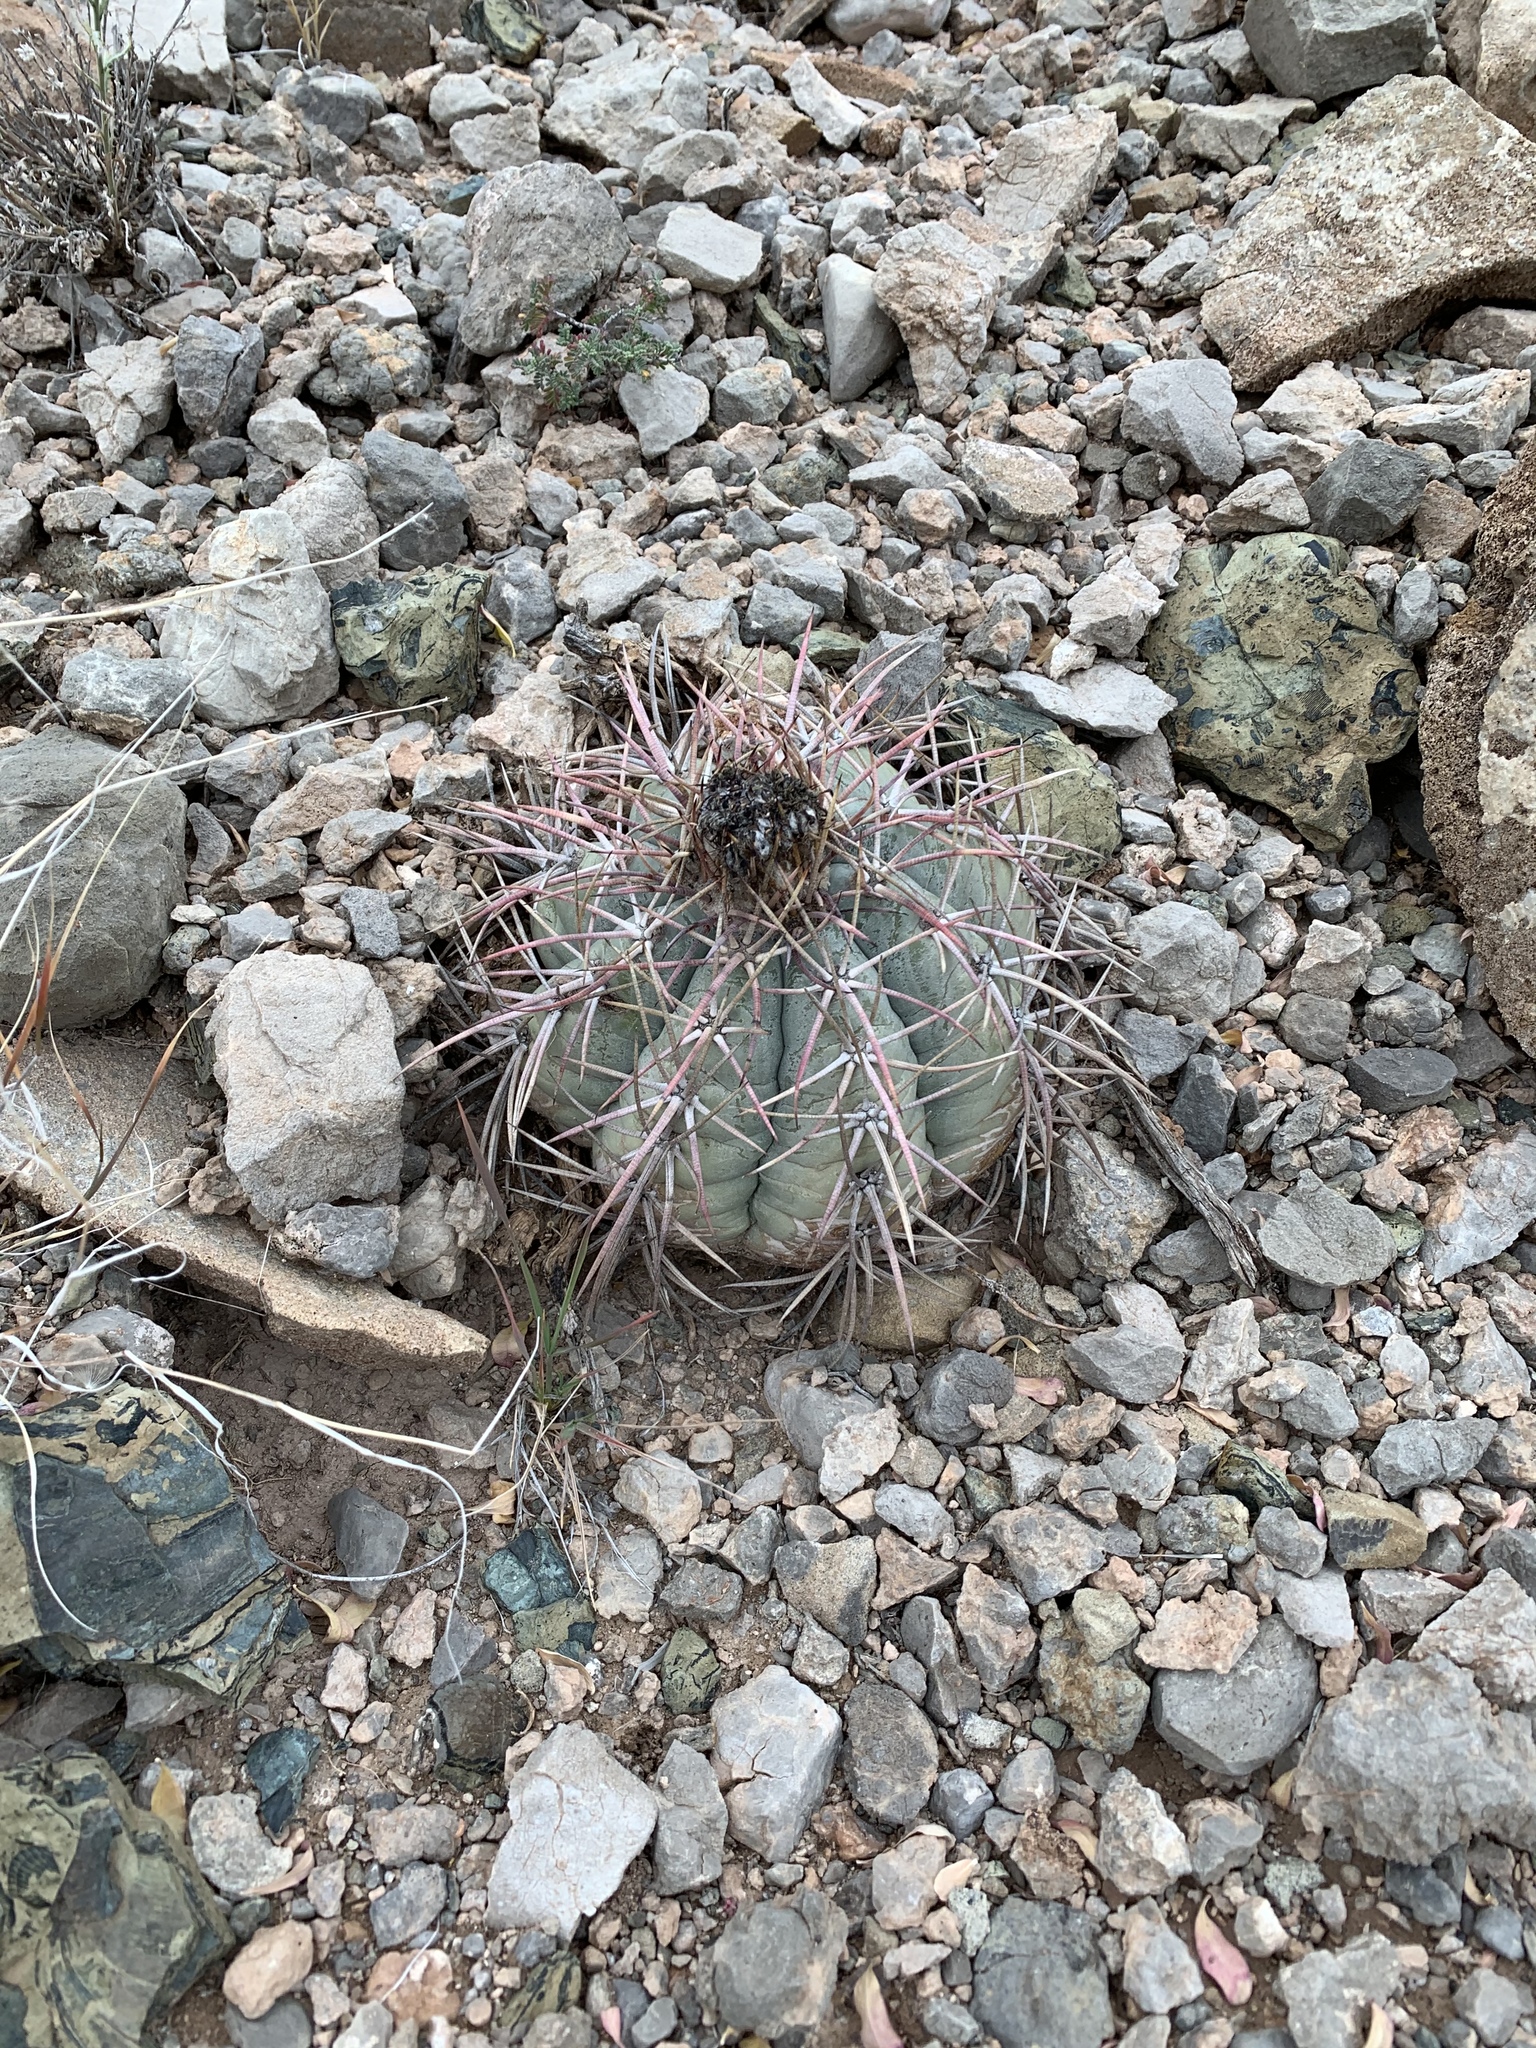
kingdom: Plantae
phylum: Tracheophyta
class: Magnoliopsida
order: Caryophyllales
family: Cactaceae
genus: Echinocactus
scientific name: Echinocactus horizonthalonius
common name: Devilshead
